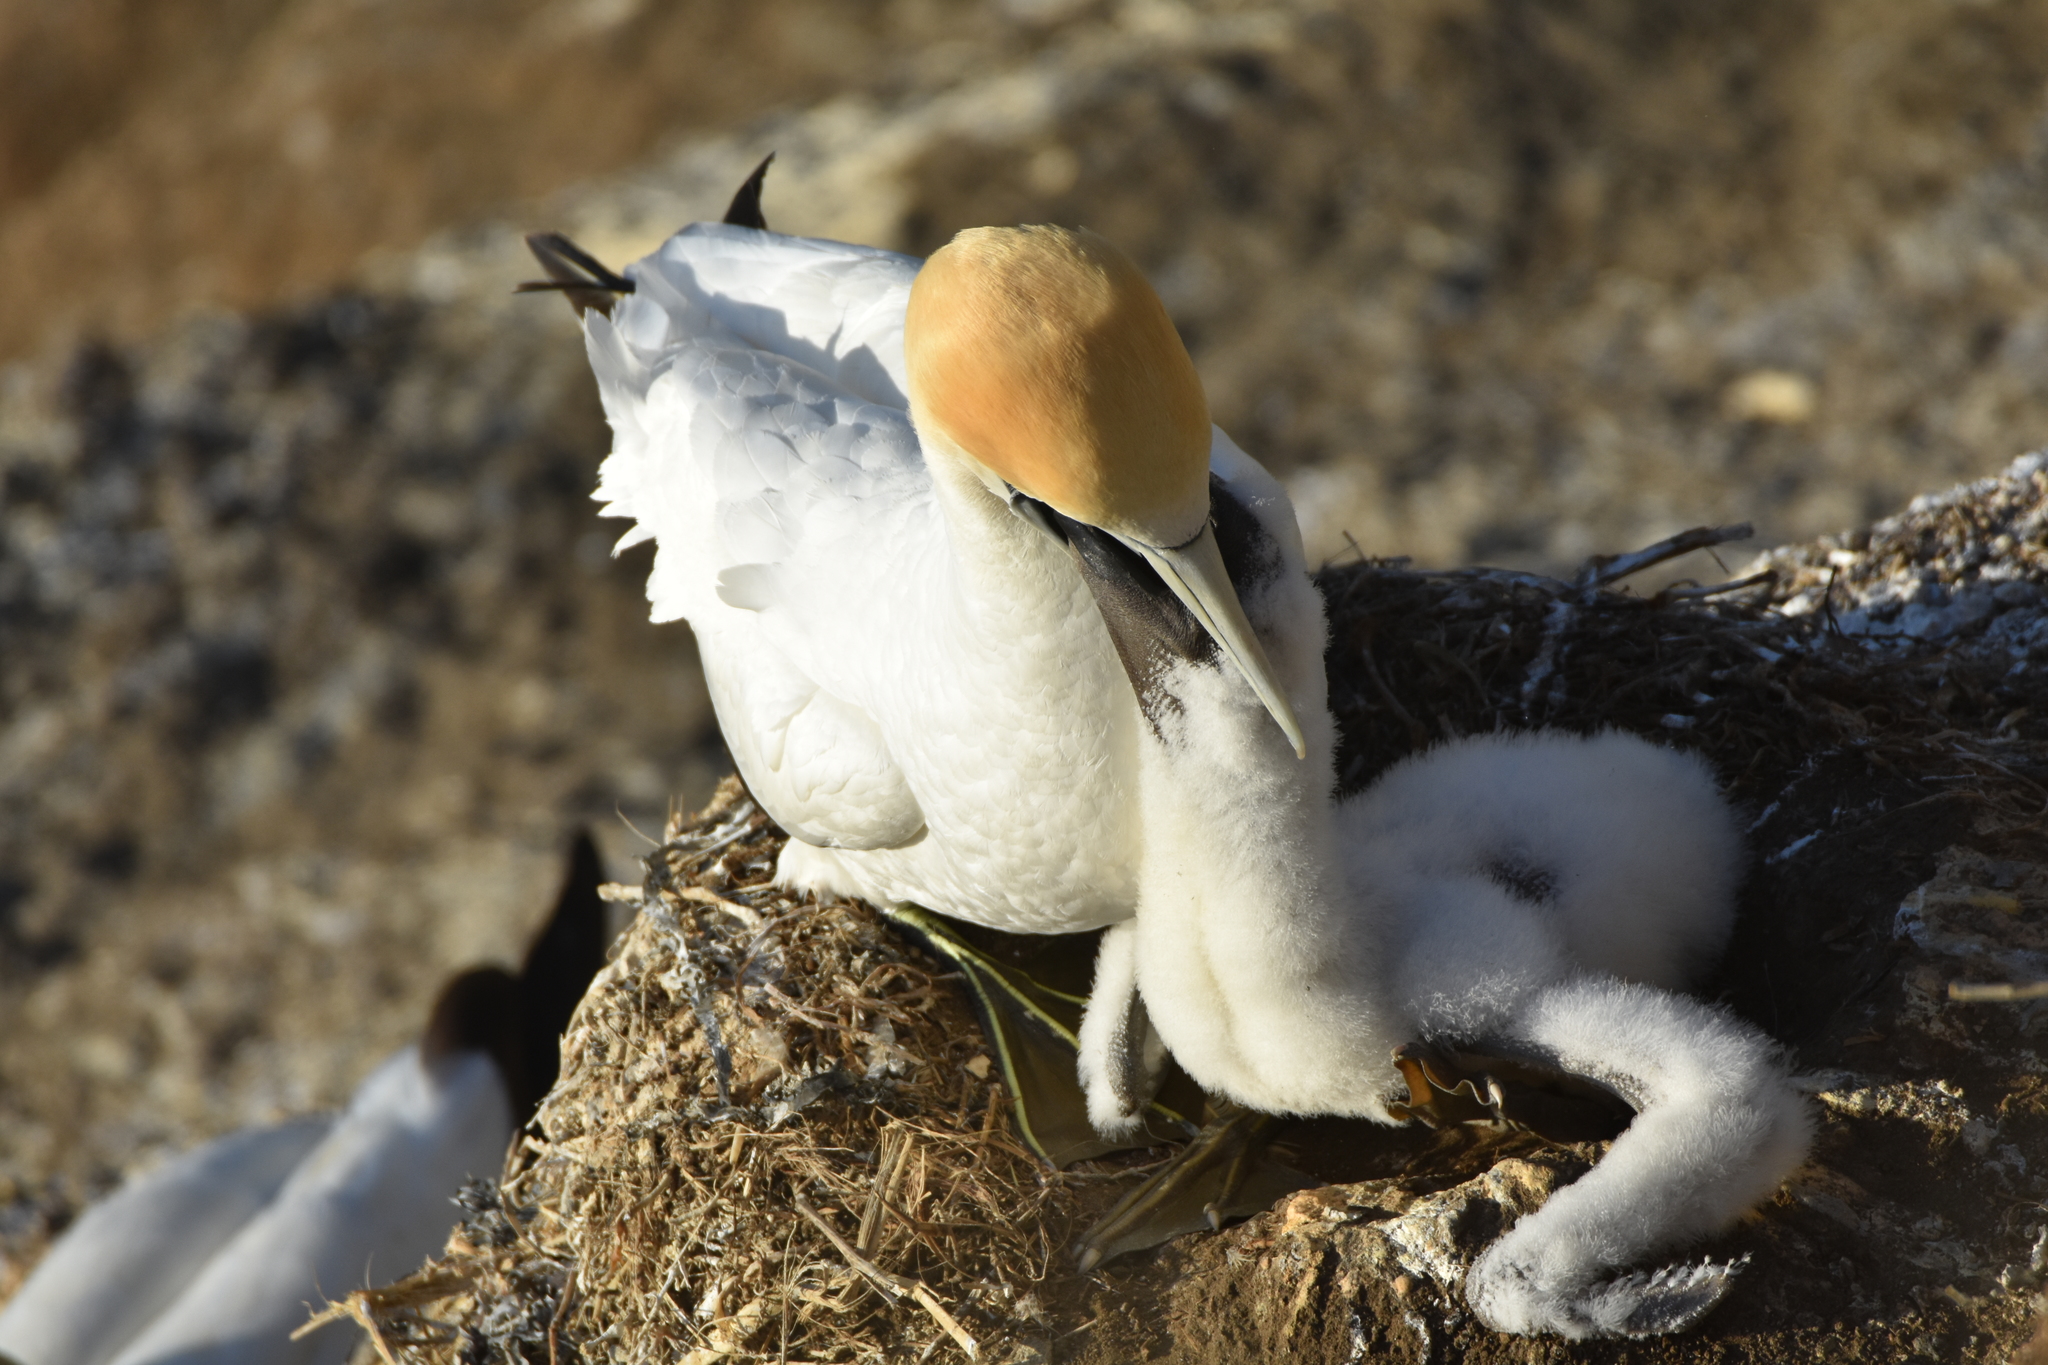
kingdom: Animalia
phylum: Chordata
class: Aves
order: Suliformes
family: Sulidae
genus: Morus
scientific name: Morus serrator
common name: Australasian gannet
